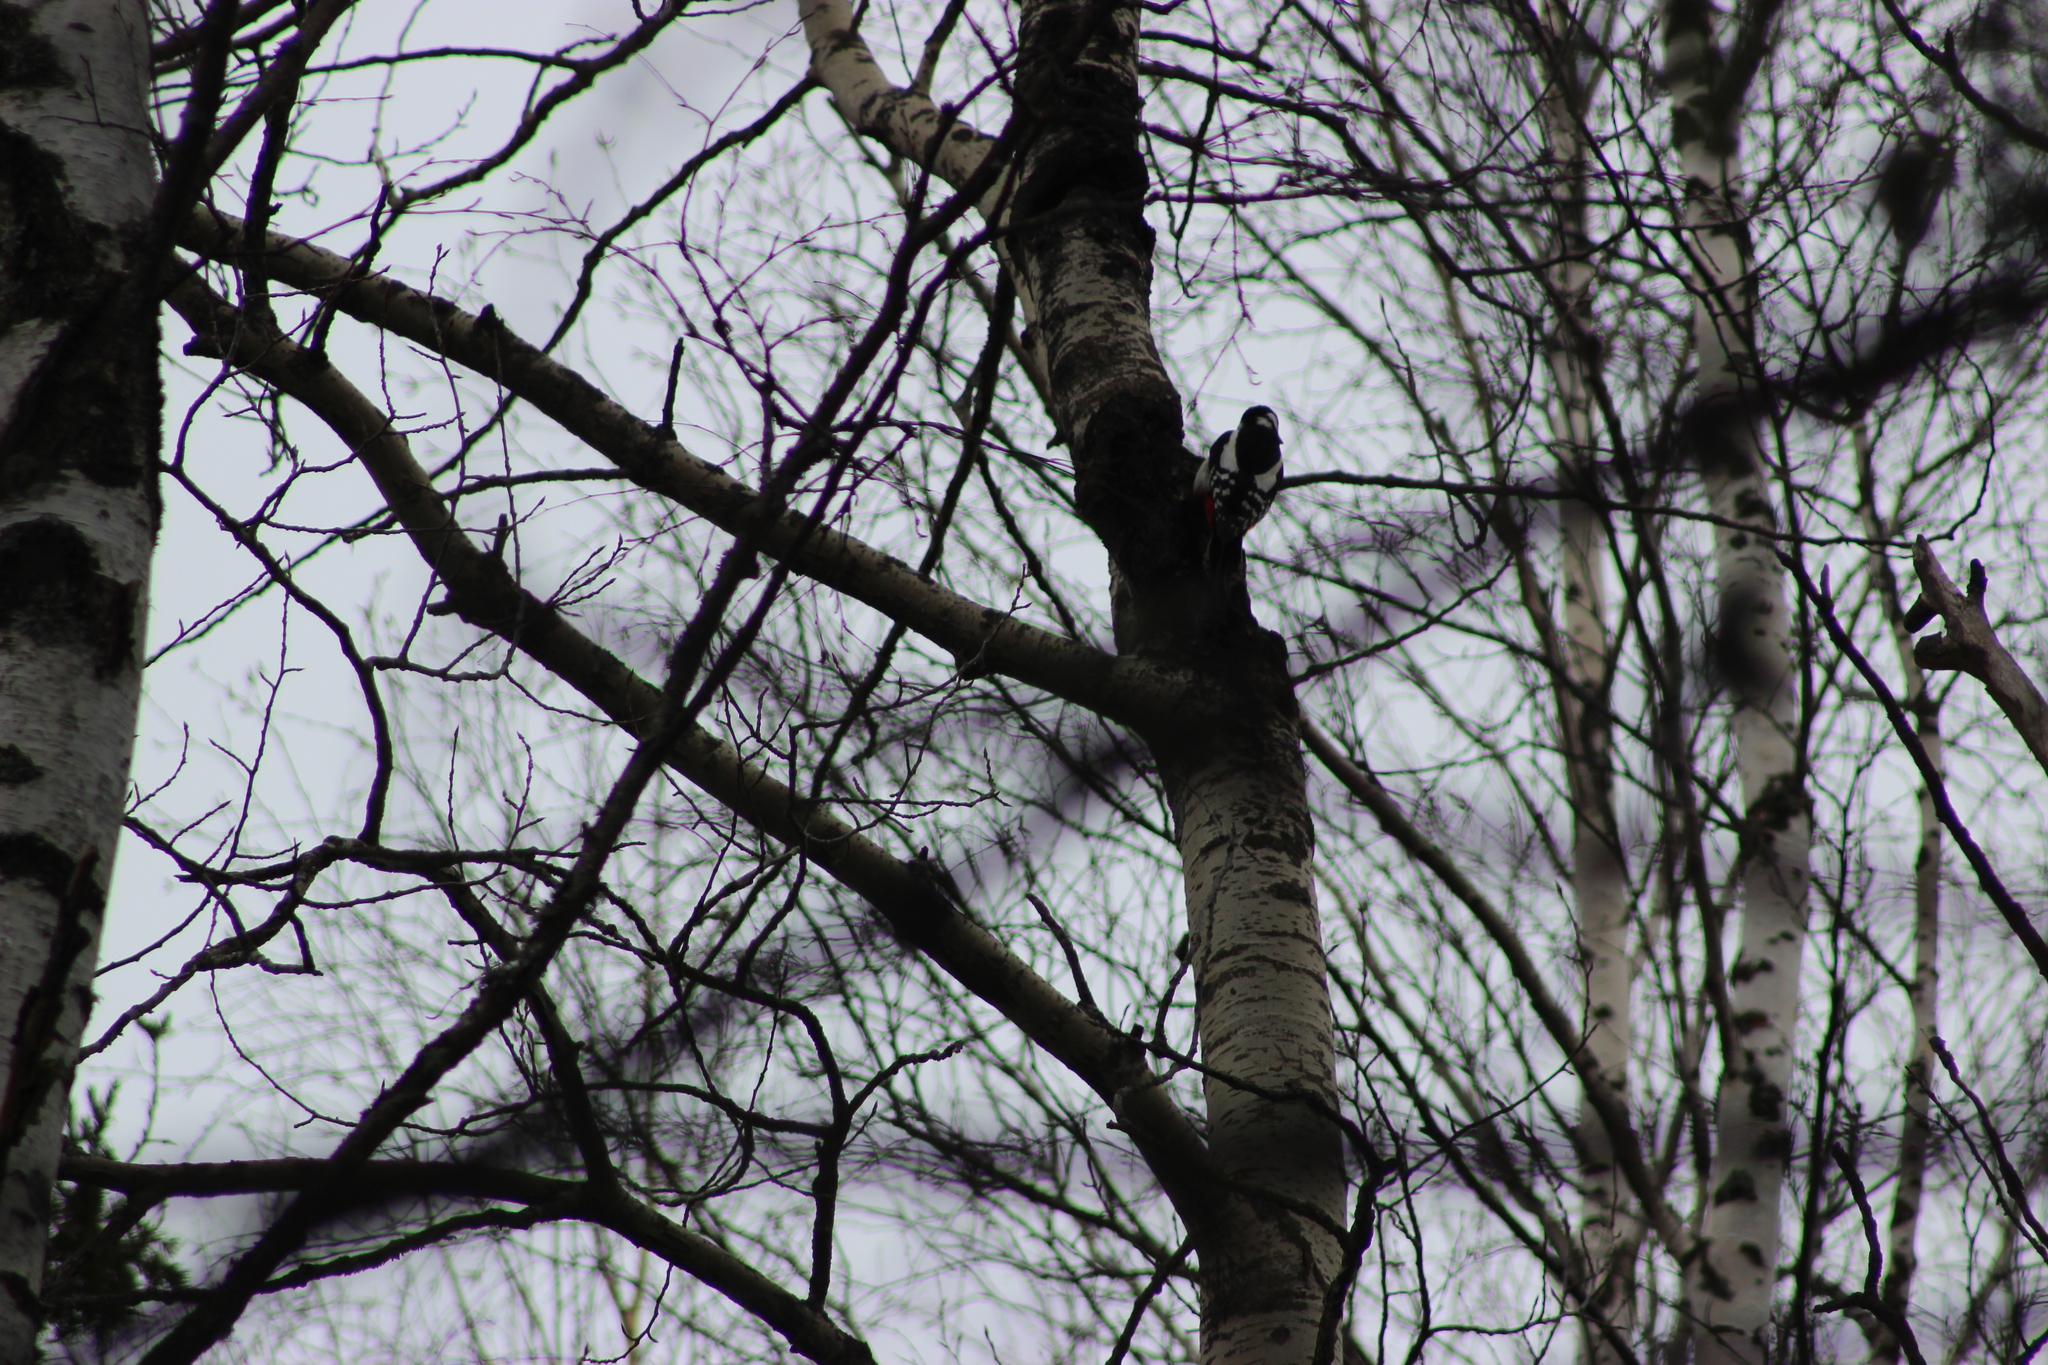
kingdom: Animalia
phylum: Chordata
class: Aves
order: Piciformes
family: Picidae
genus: Dendrocopos
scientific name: Dendrocopos major
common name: Great spotted woodpecker
